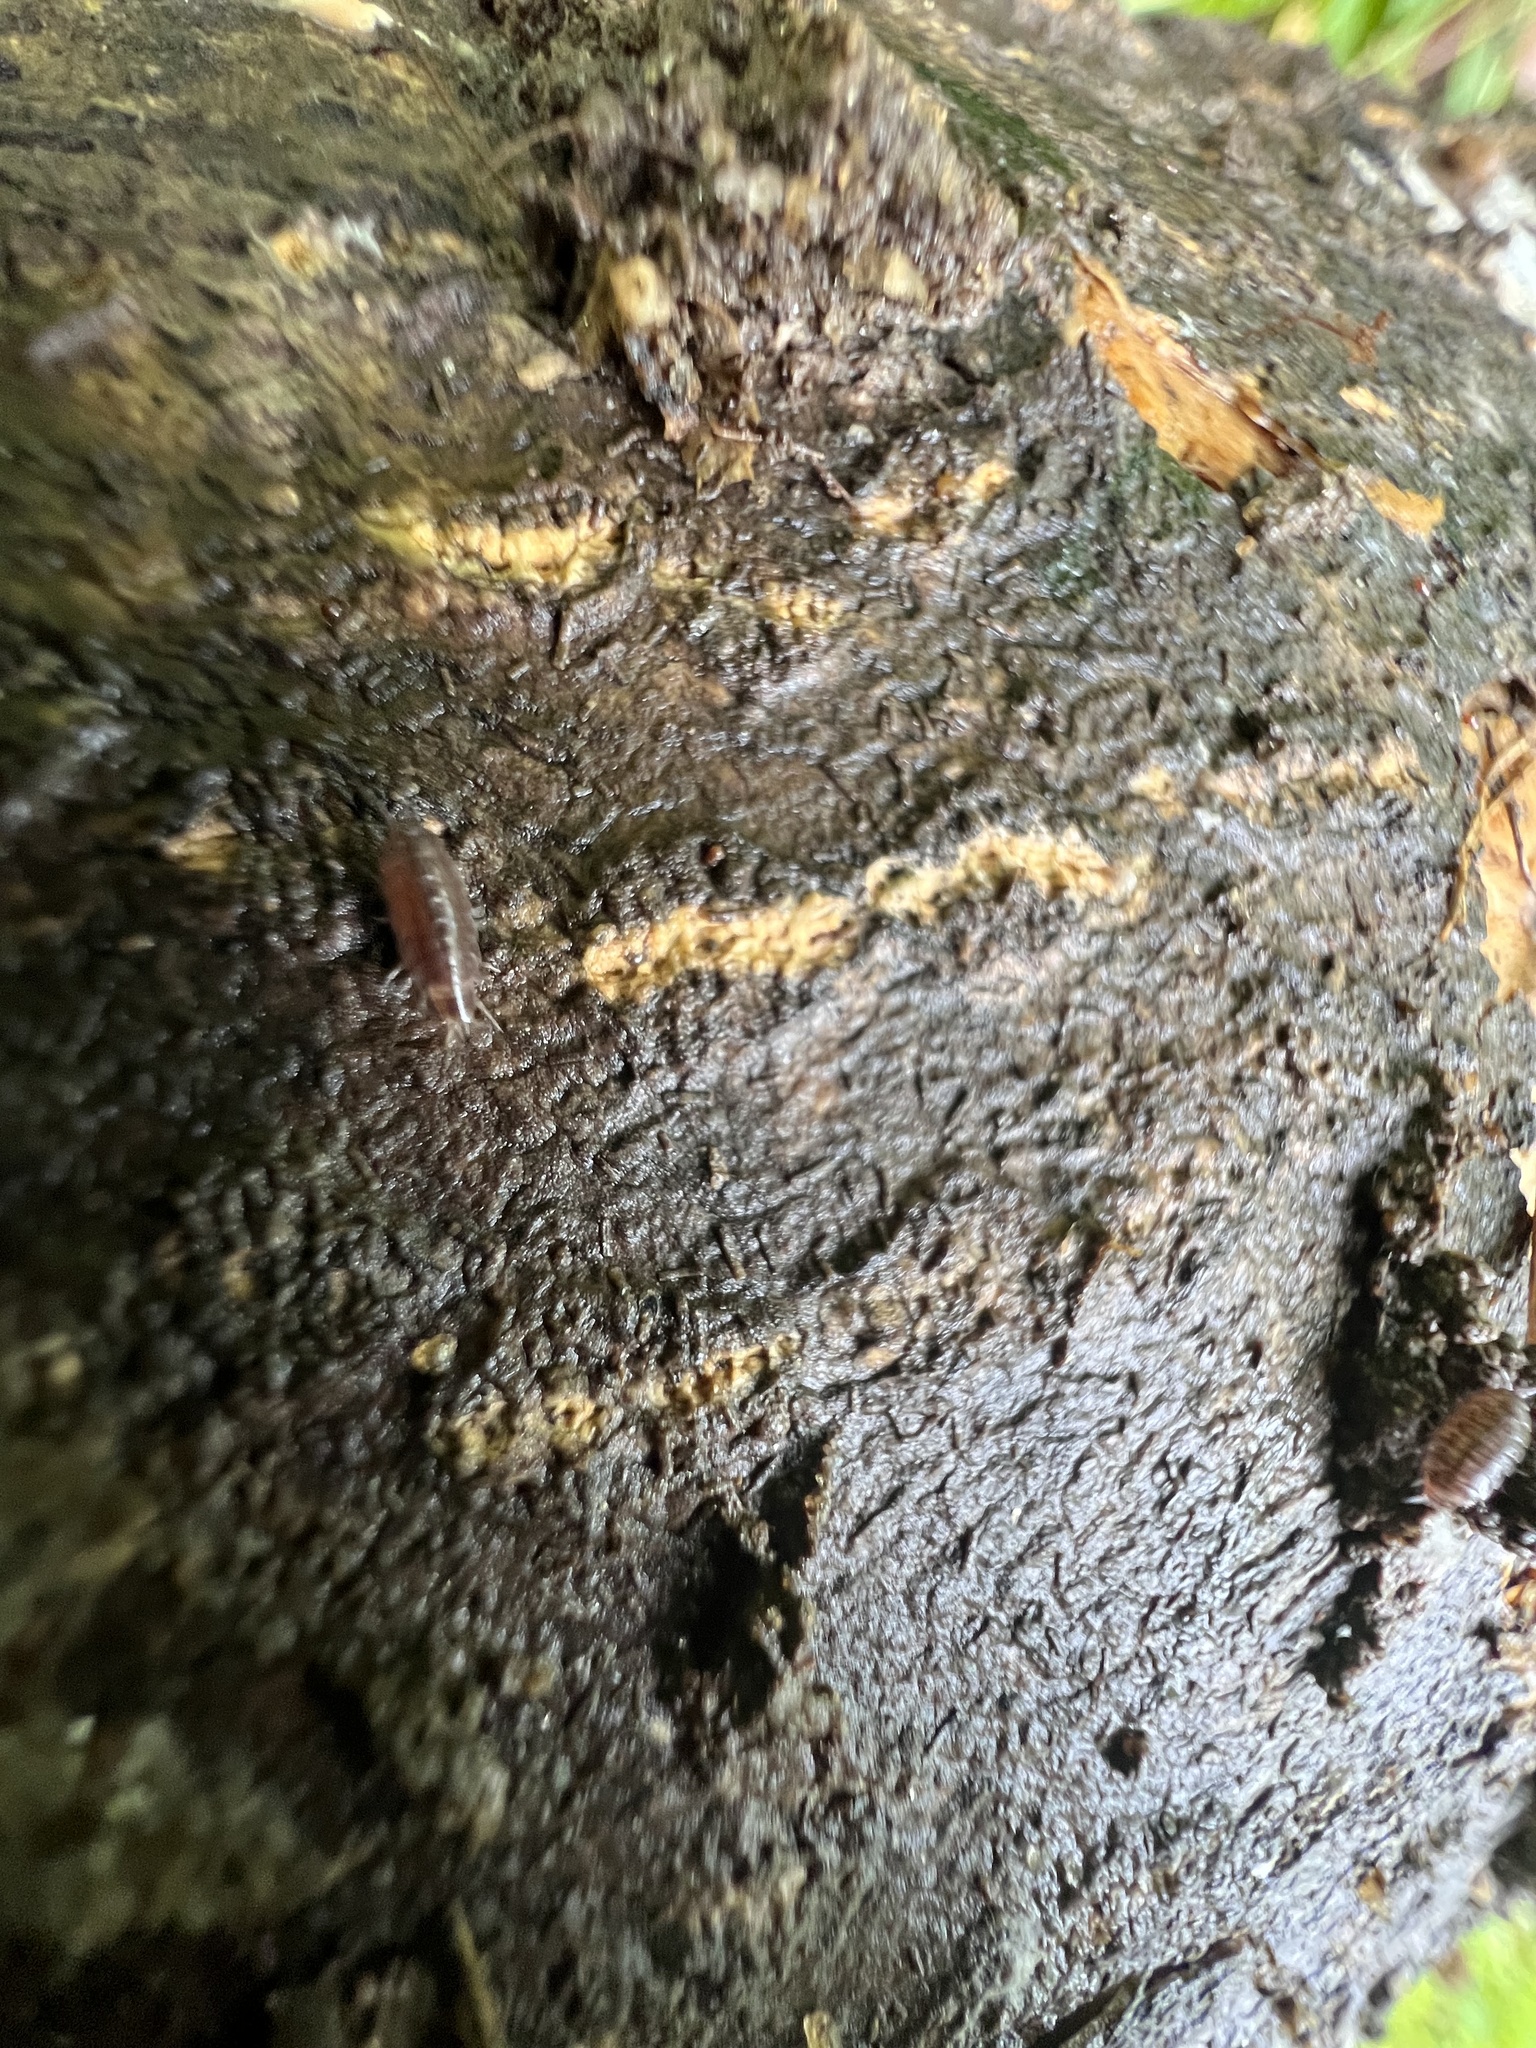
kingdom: Animalia
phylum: Arthropoda
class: Malacostraca
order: Isopoda
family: Trichoniscidae
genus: Hyloniscus
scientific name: Hyloniscus riparius
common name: Isopod
